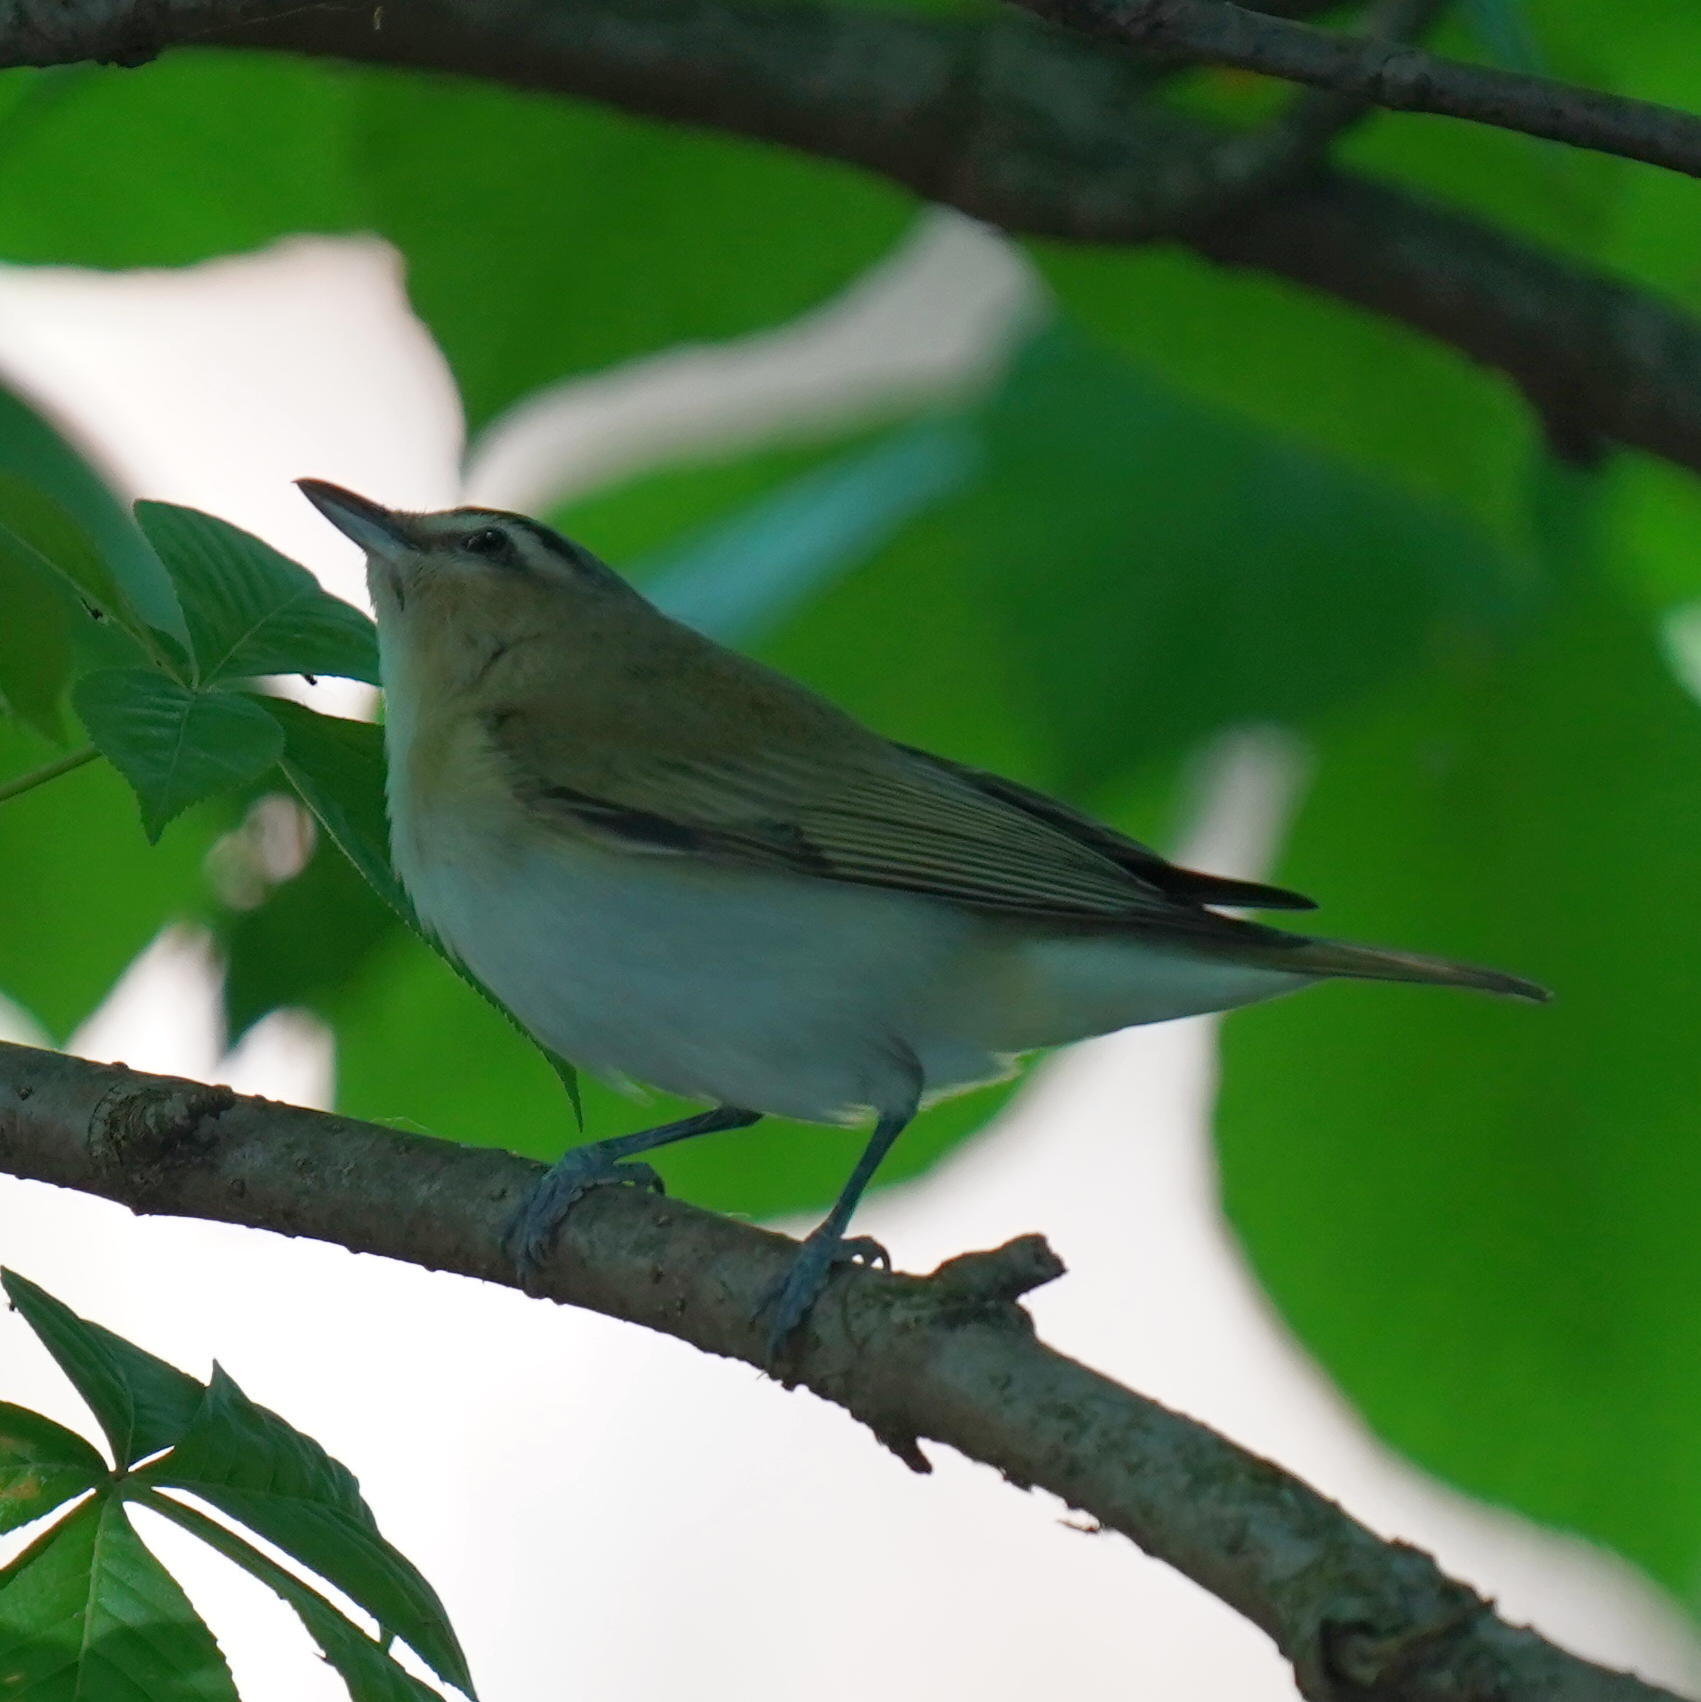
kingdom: Animalia
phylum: Chordata
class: Aves
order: Passeriformes
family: Vireonidae
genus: Vireo
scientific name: Vireo olivaceus
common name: Red-eyed vireo
